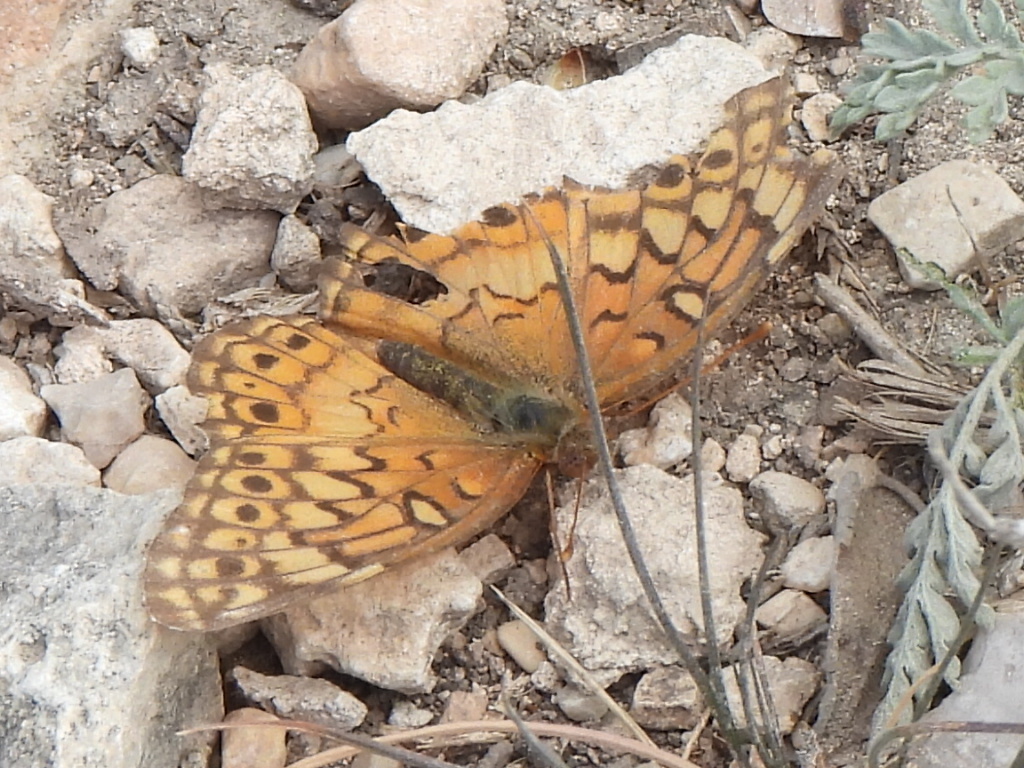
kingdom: Animalia
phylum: Arthropoda
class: Insecta
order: Lepidoptera
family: Nymphalidae
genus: Euptoieta
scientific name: Euptoieta claudia
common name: Variegated fritillary
